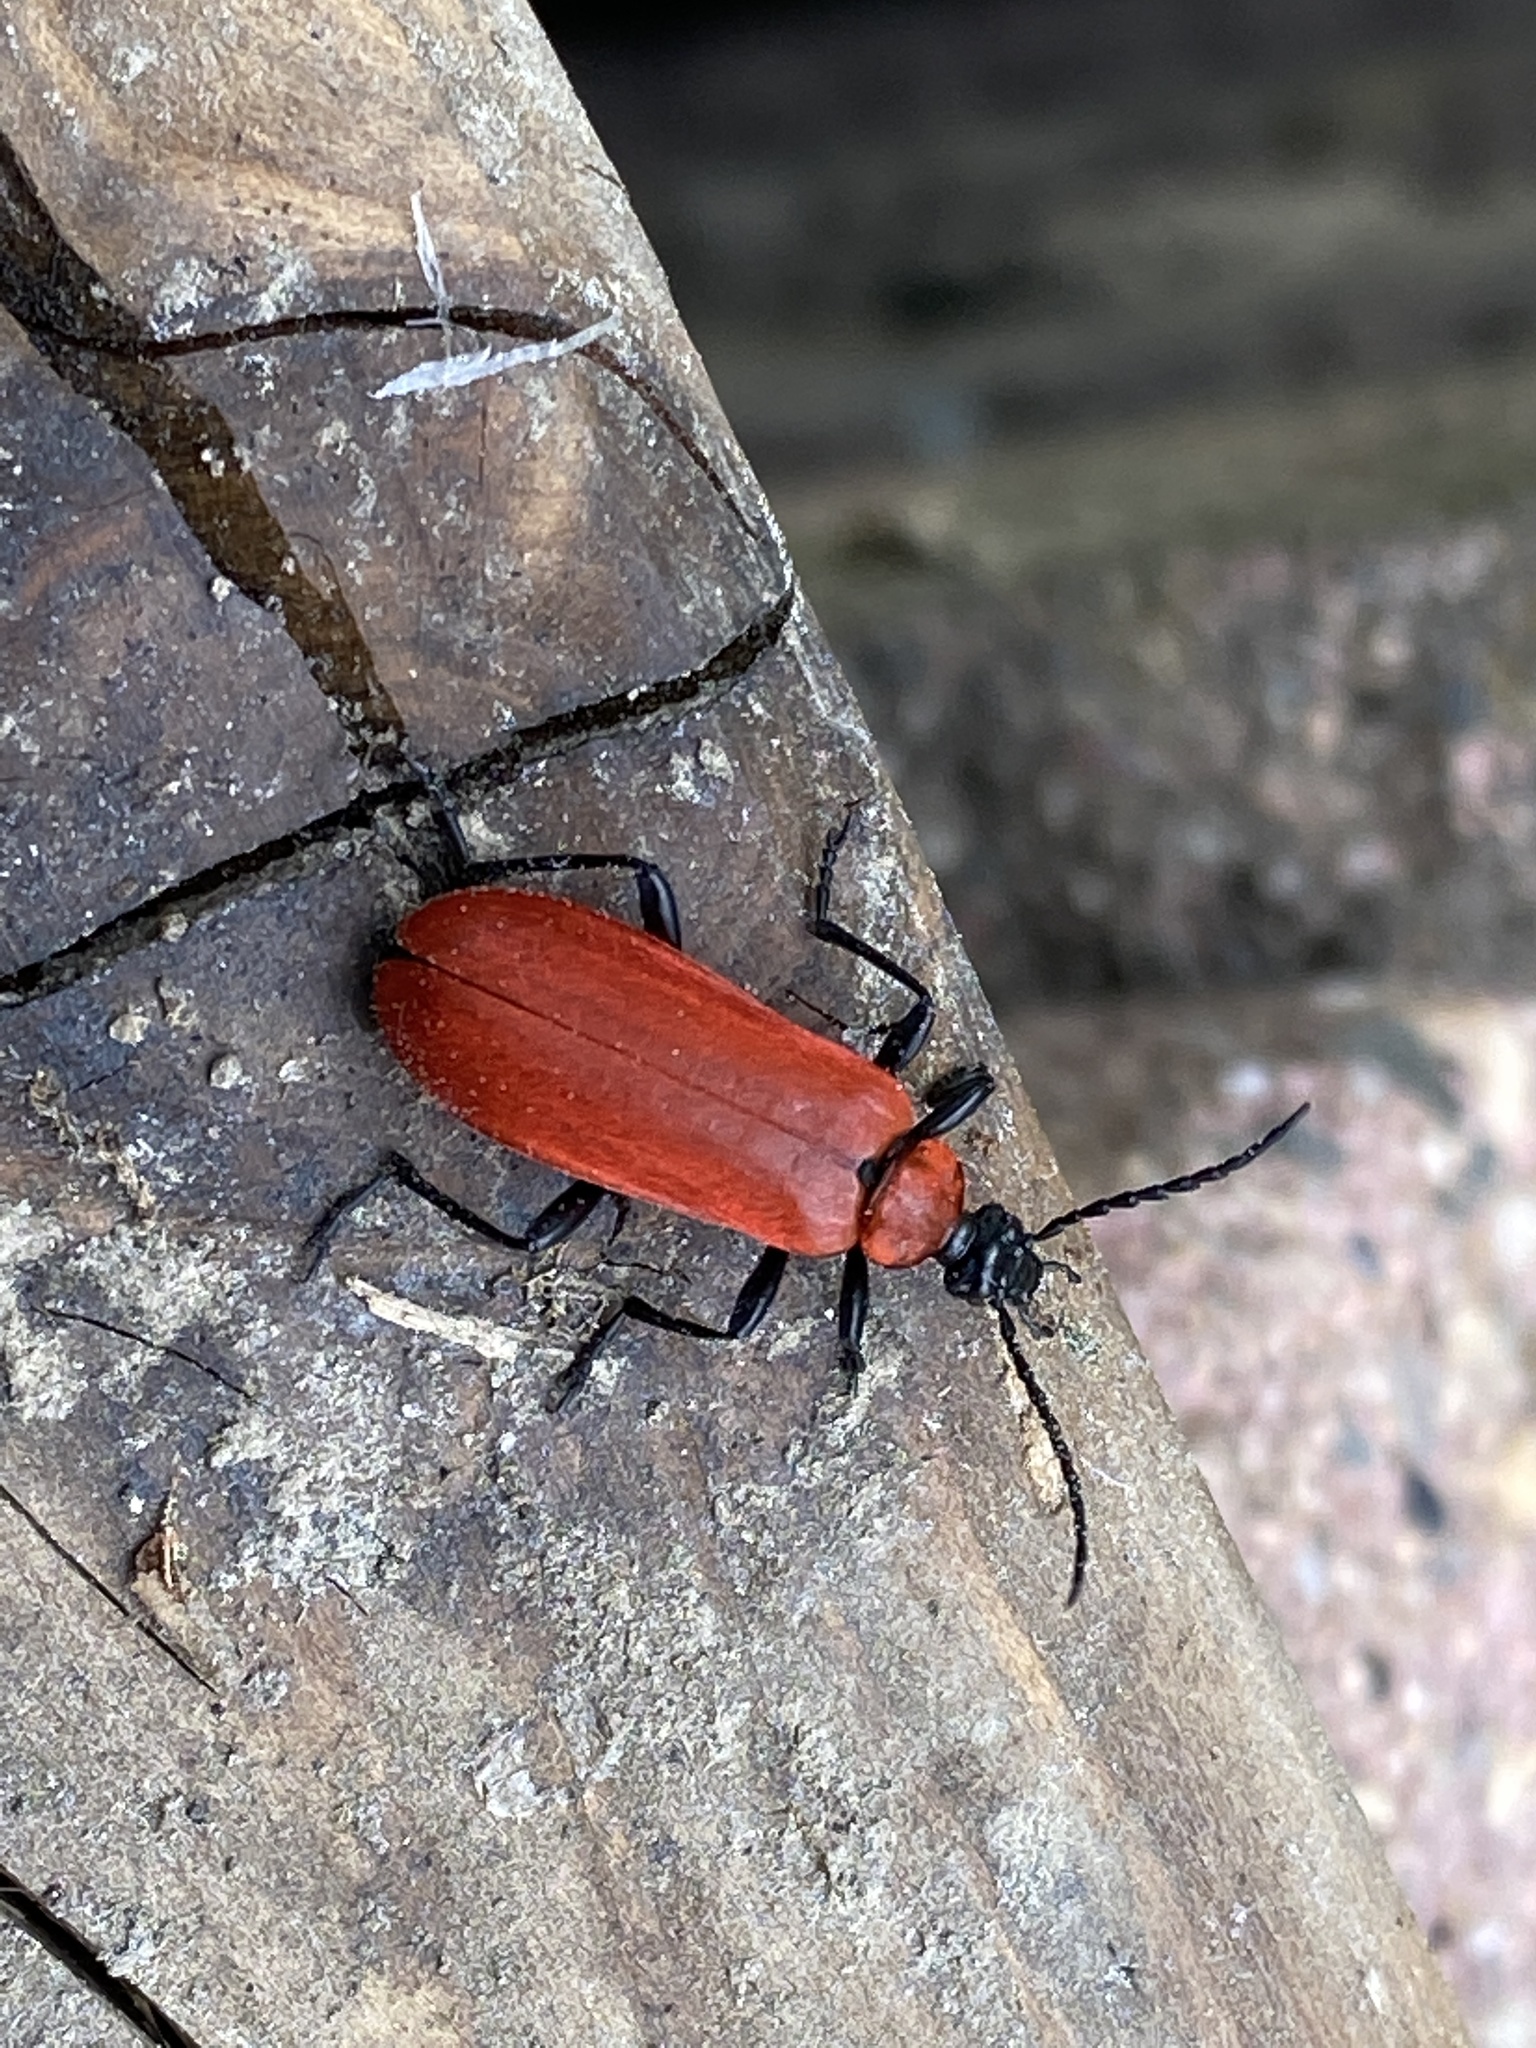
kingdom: Animalia
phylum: Arthropoda
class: Insecta
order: Coleoptera
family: Pyrochroidae
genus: Pyrochroa
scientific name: Pyrochroa coccinea
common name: Black-headed cardinal beetle
